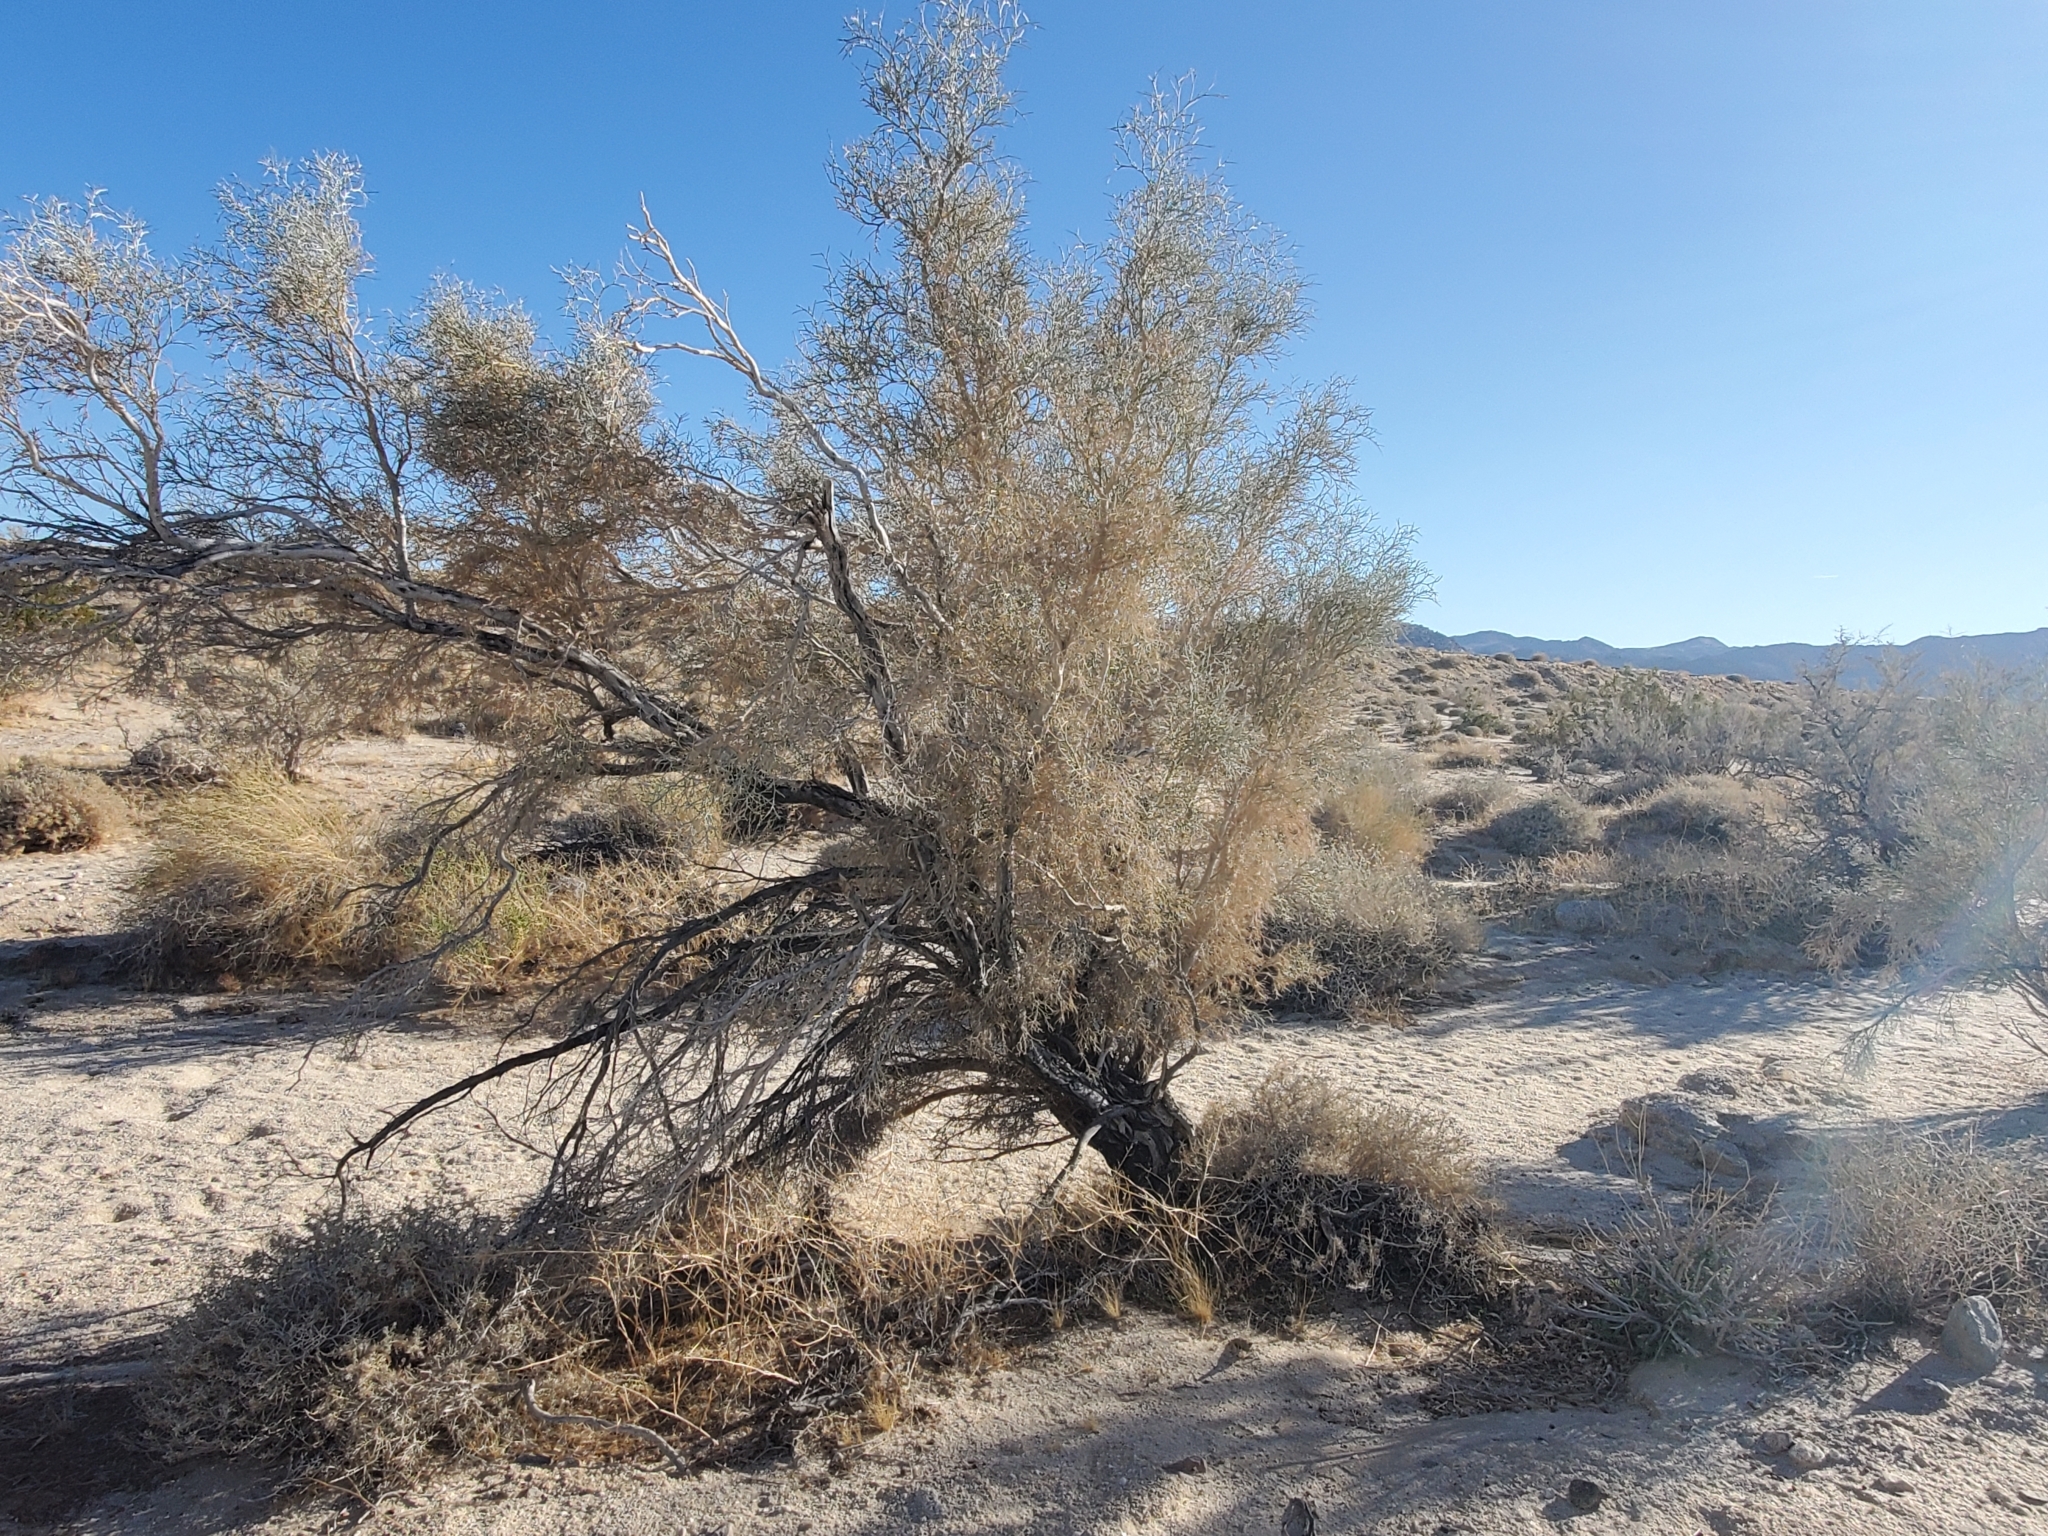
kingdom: Plantae
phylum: Tracheophyta
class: Magnoliopsida
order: Fabales
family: Fabaceae
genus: Psorothamnus
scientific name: Psorothamnus spinosus
